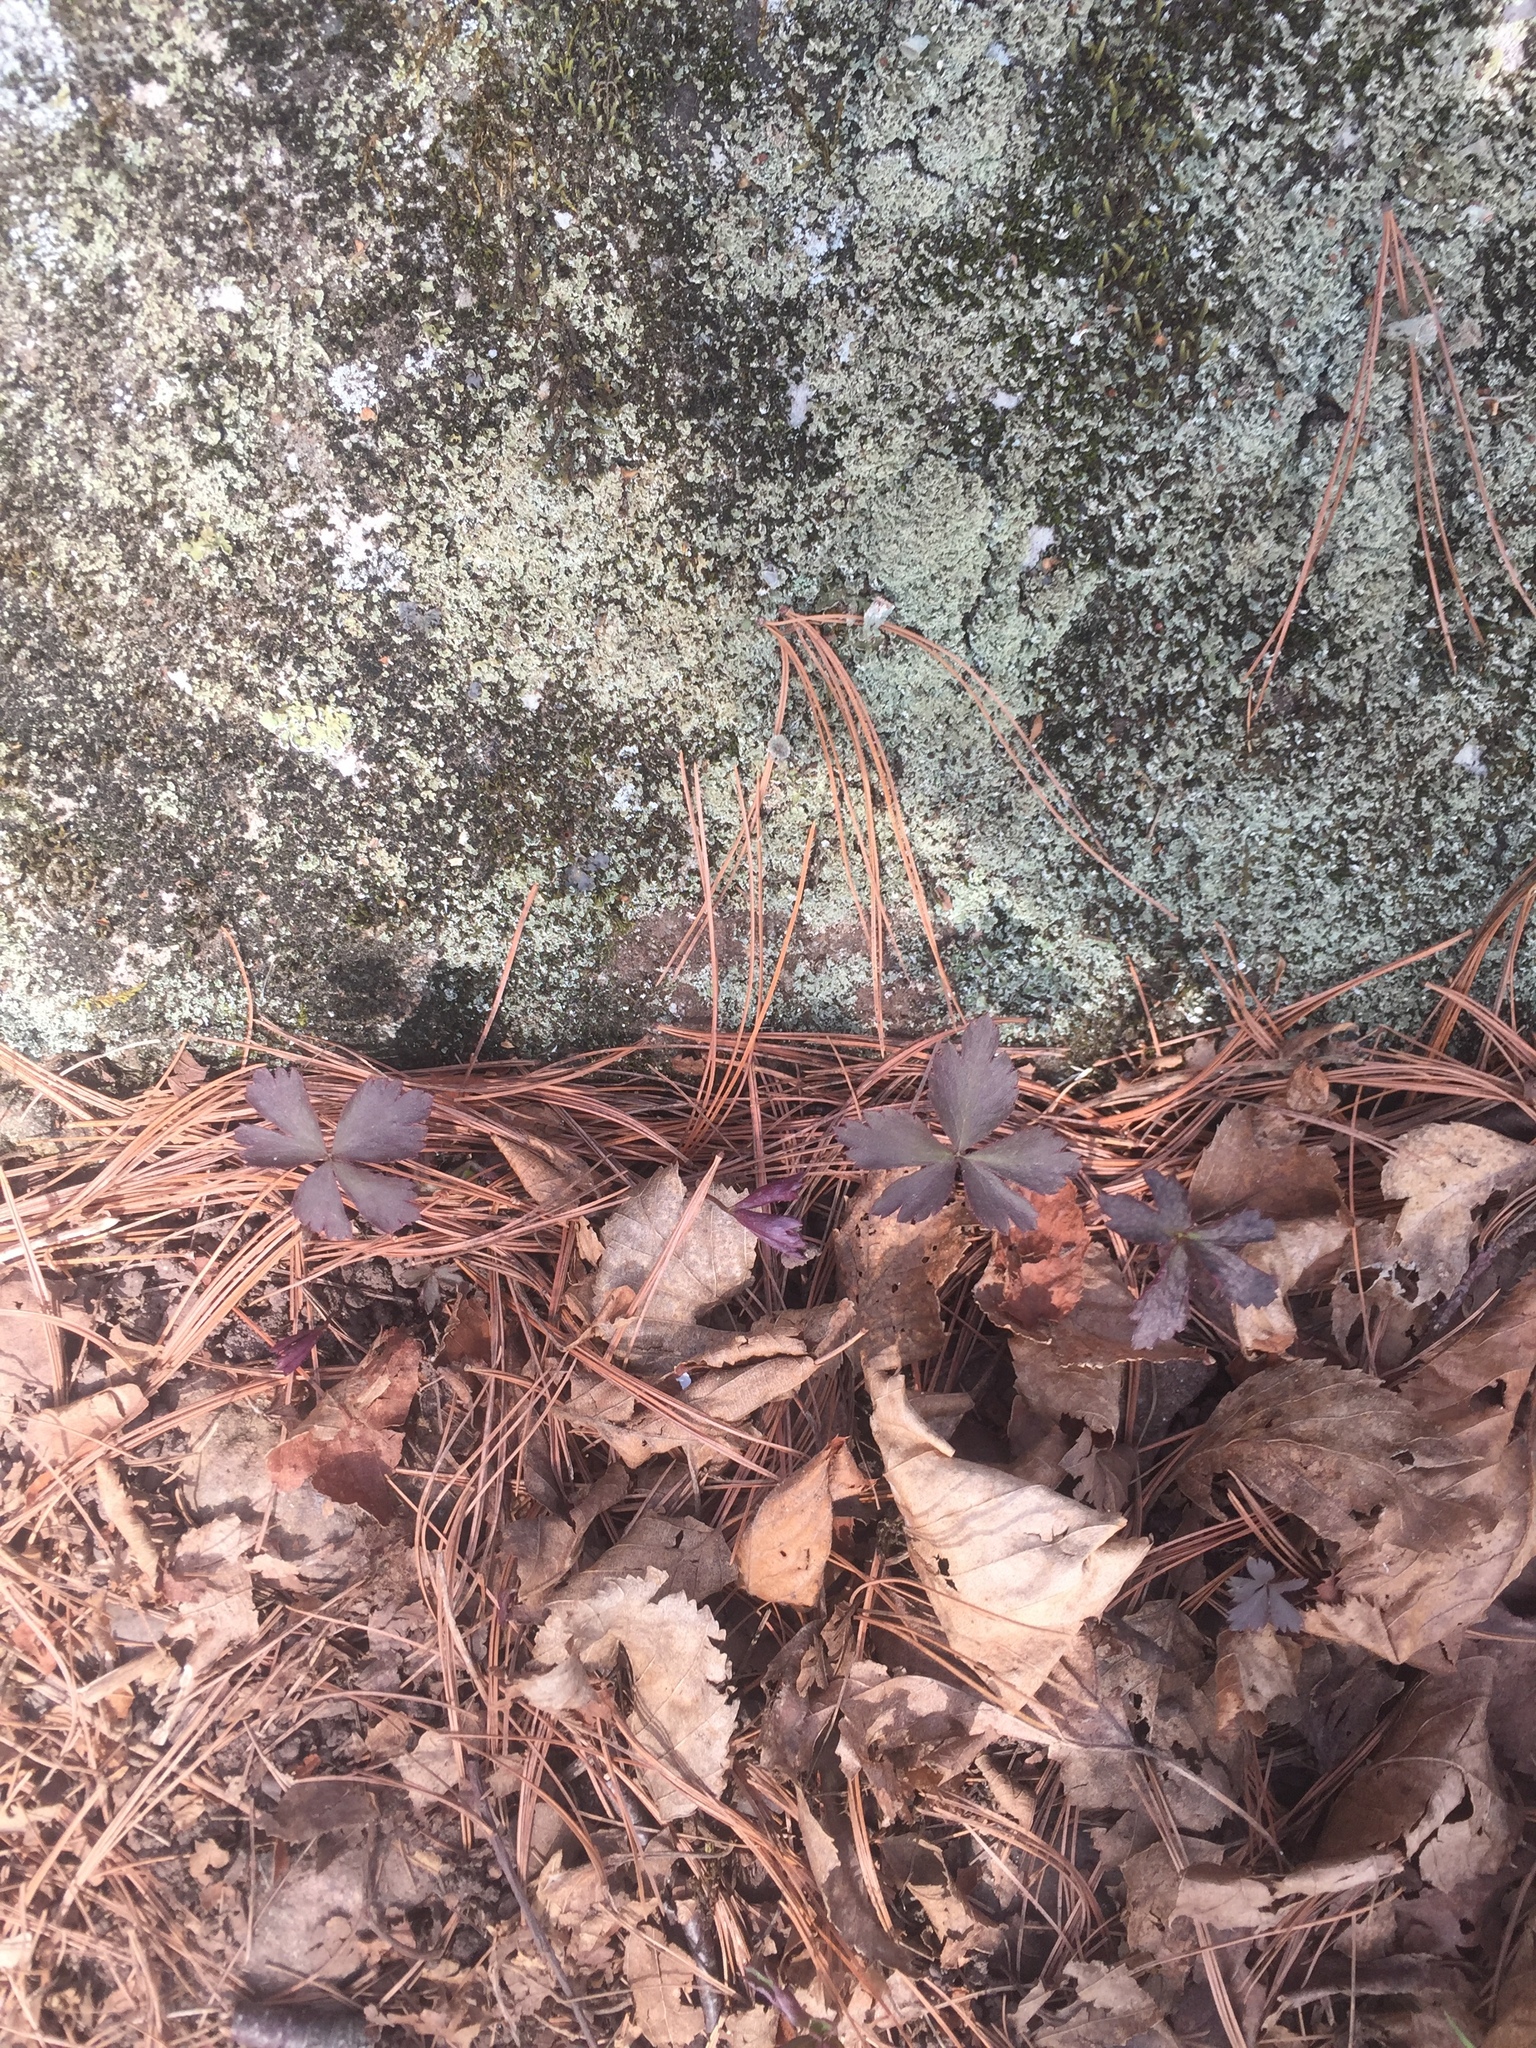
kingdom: Plantae
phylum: Tracheophyta
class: Magnoliopsida
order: Ranunculales
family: Ranunculaceae
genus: Anemone
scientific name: Anemone quinquefolia
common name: Wood anemone
